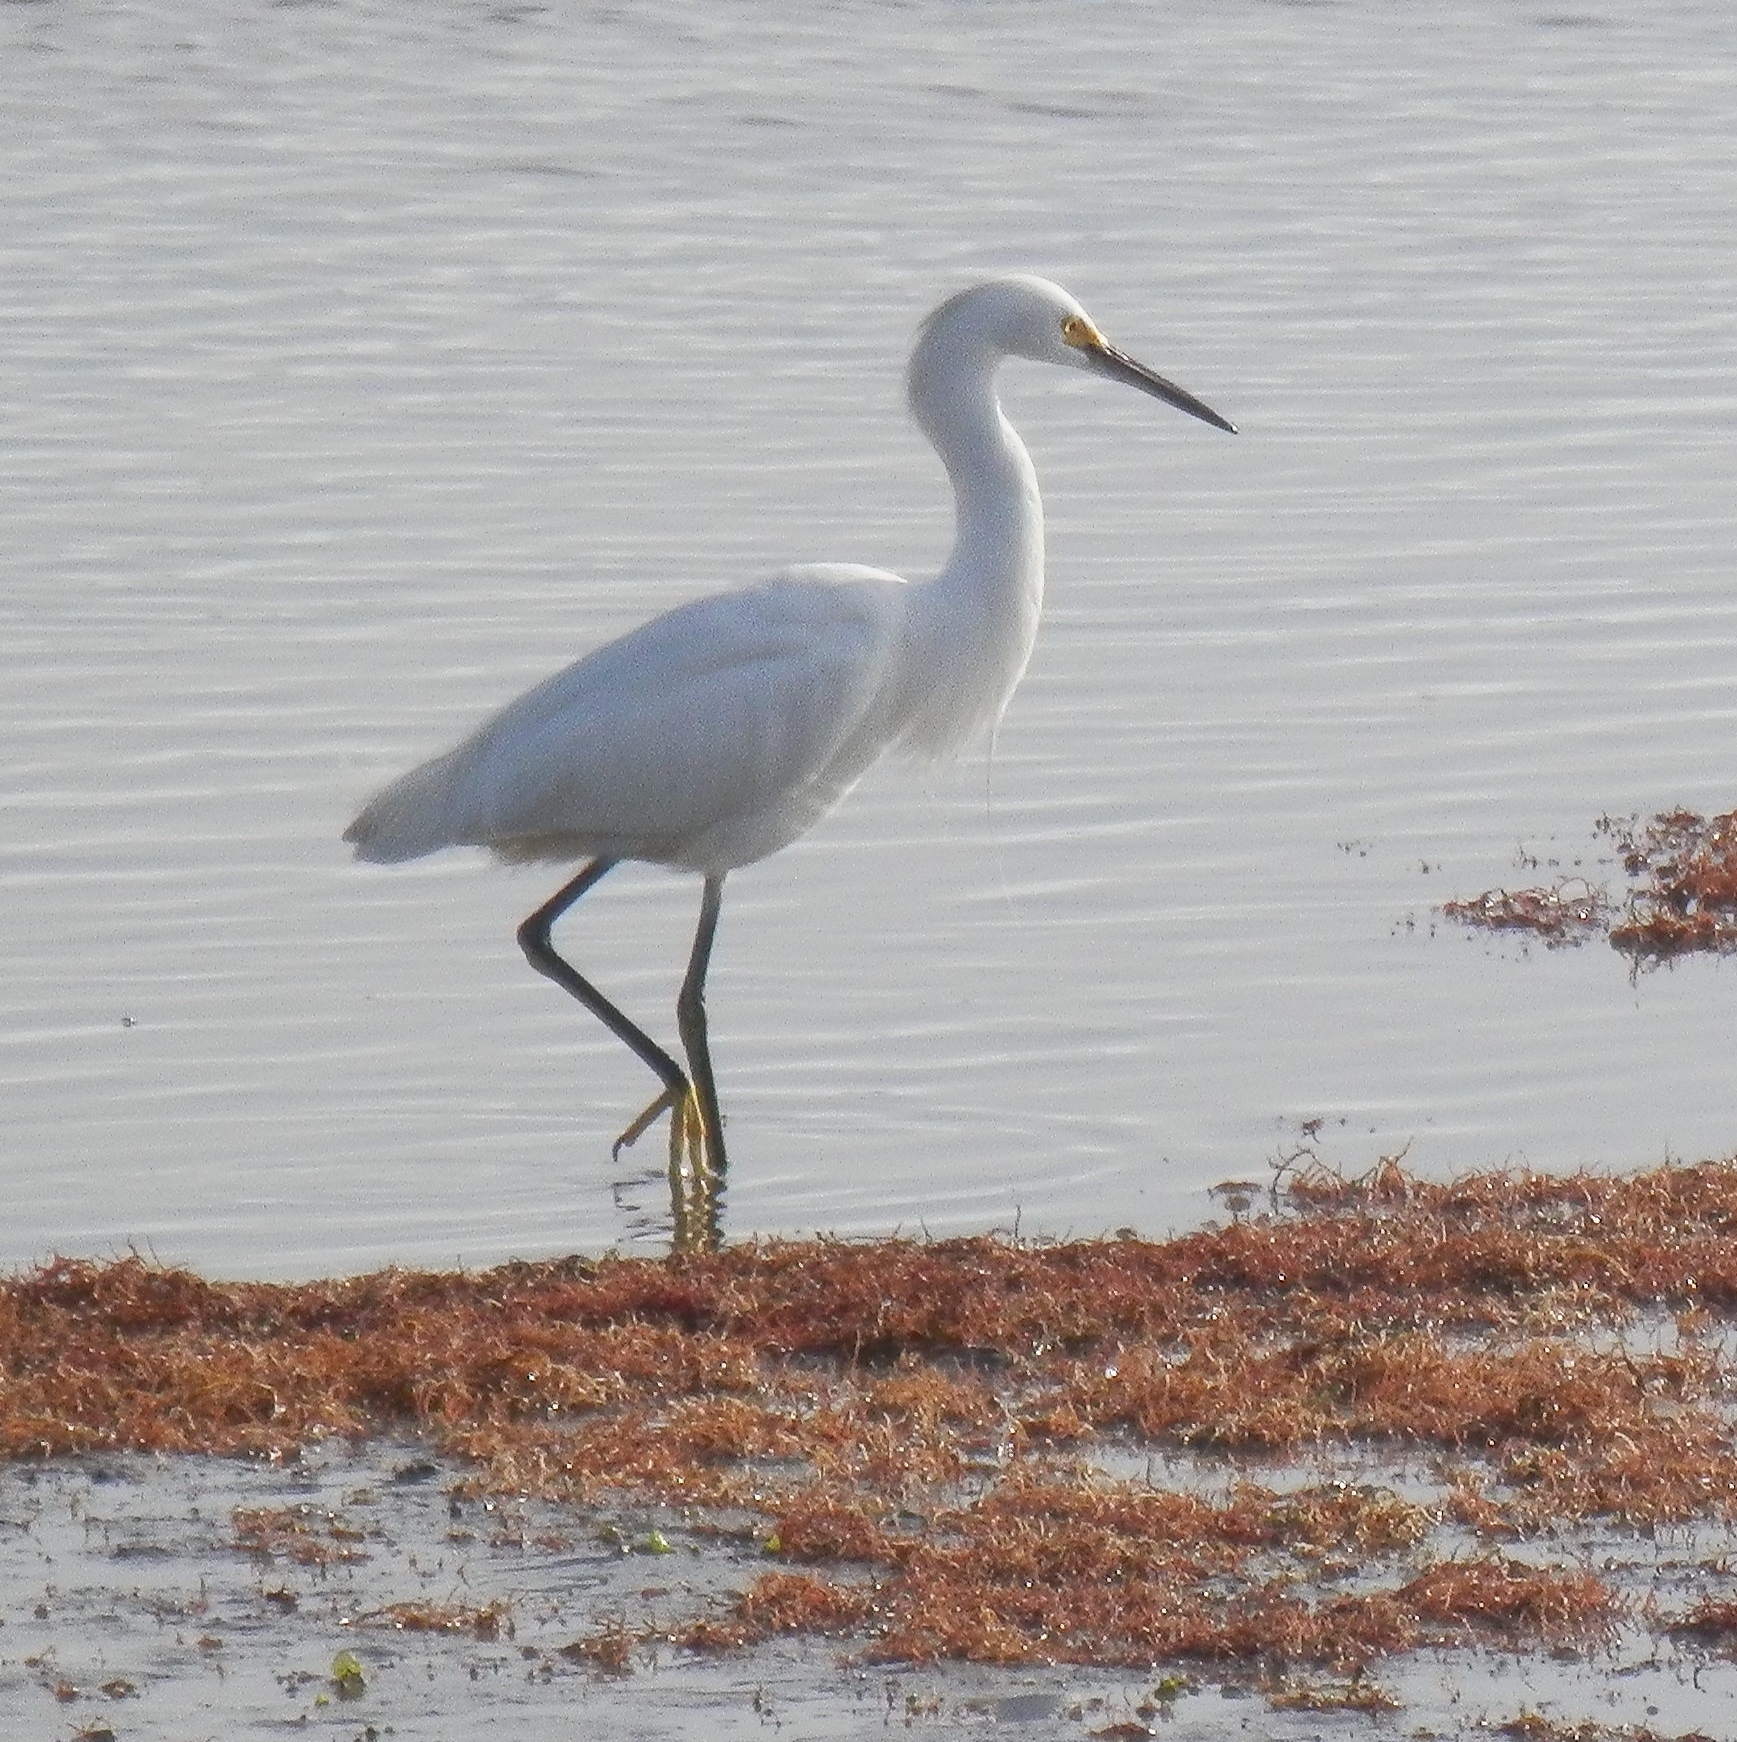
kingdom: Animalia
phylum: Chordata
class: Aves
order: Pelecaniformes
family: Ardeidae
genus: Egretta
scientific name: Egretta thula
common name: Snowy egret
